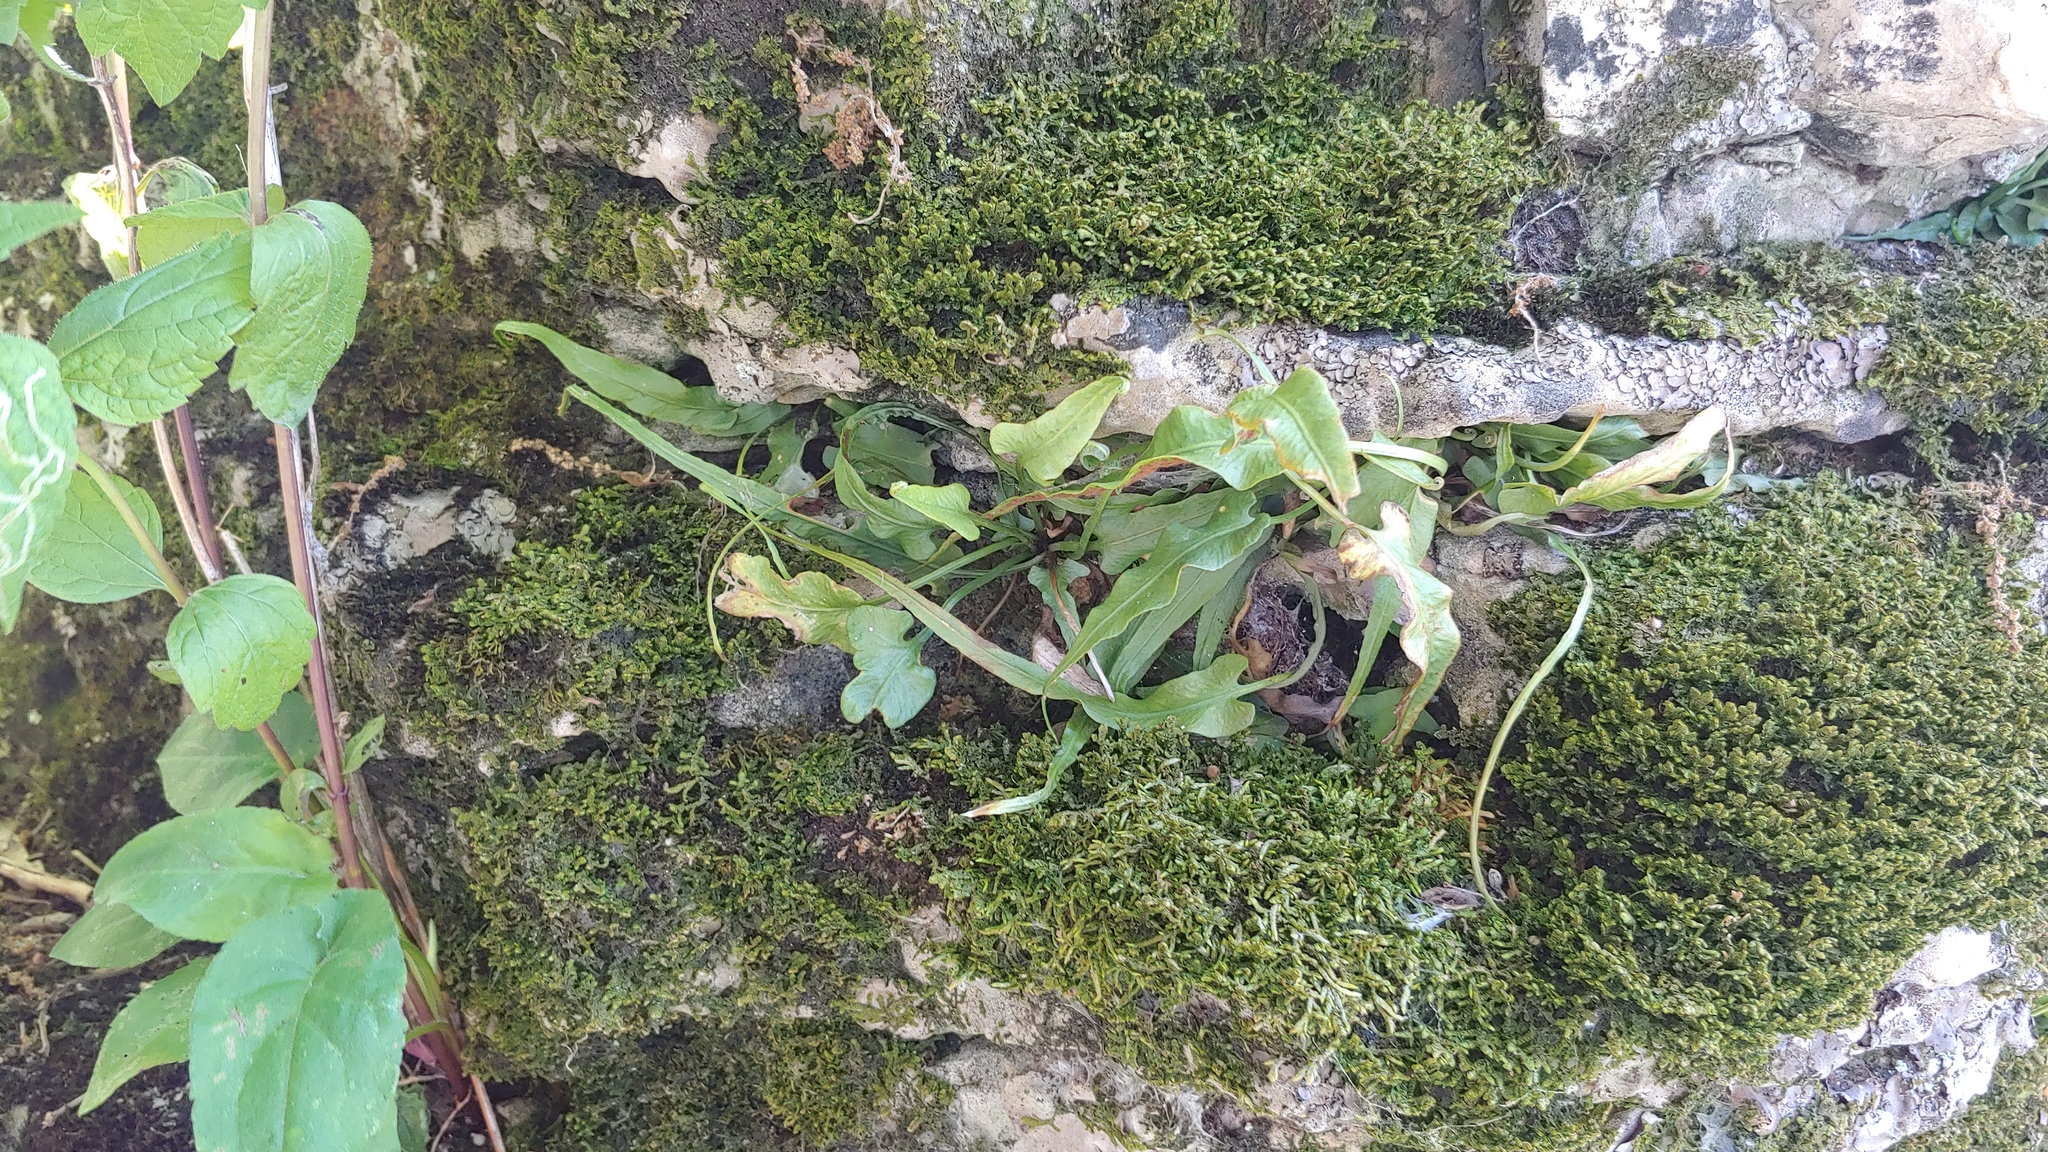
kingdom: Plantae
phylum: Tracheophyta
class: Polypodiopsida
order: Polypodiales
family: Aspleniaceae
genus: Asplenium
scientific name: Asplenium rhizophyllum
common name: Walking fern
